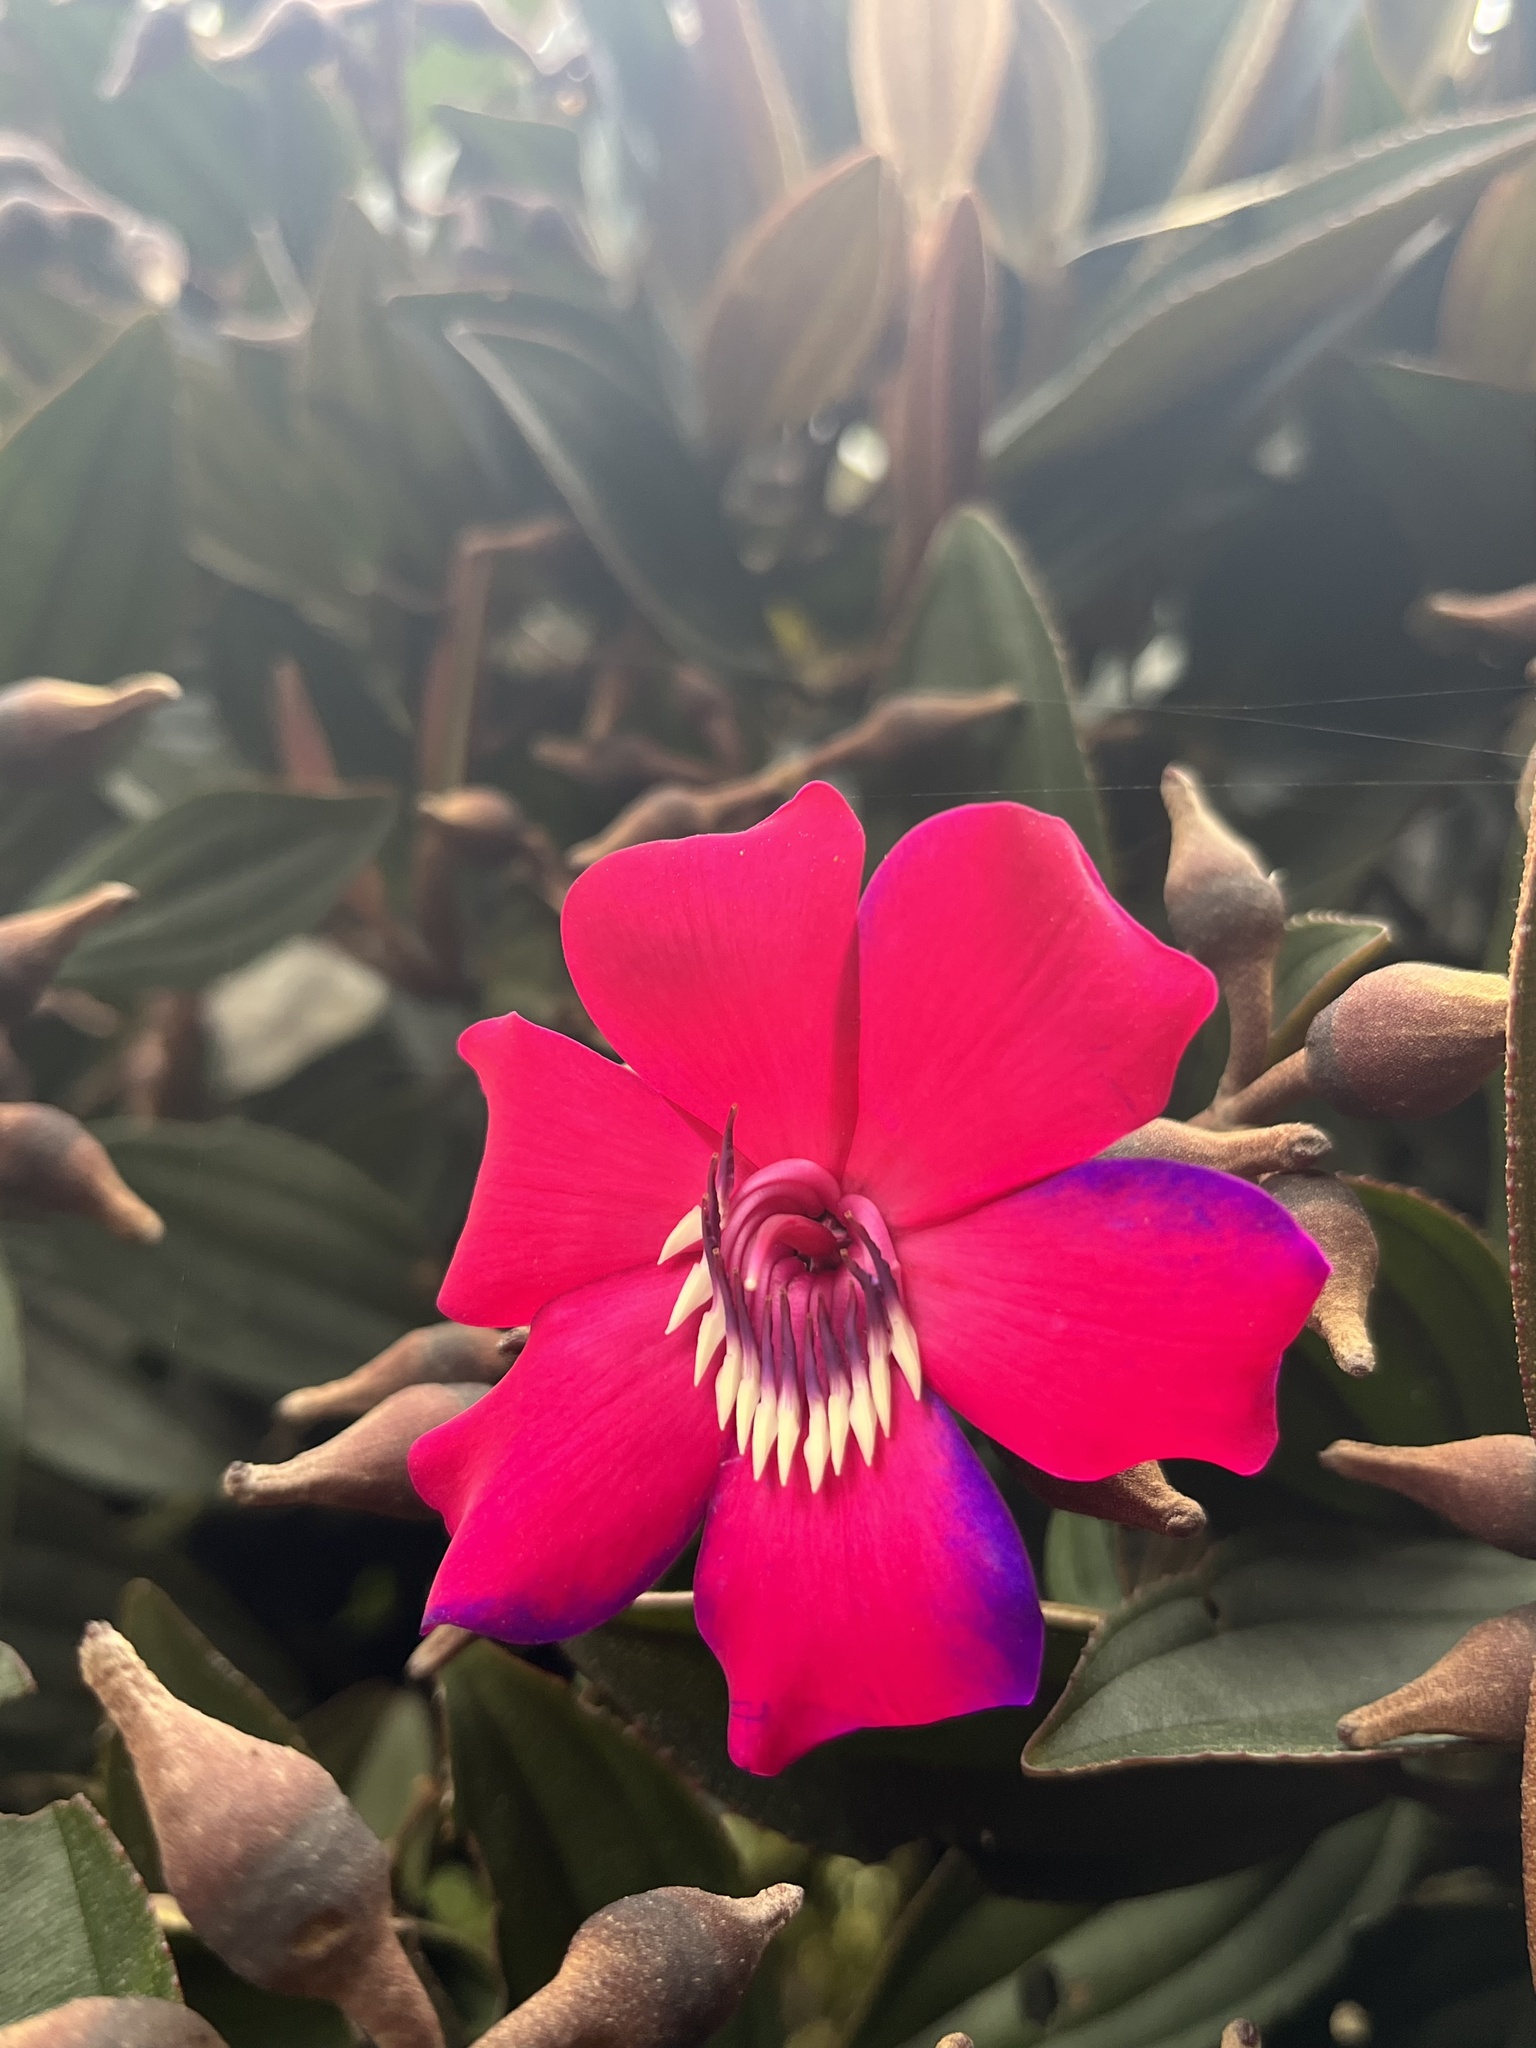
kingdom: Plantae
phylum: Tracheophyta
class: Magnoliopsida
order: Myrtales
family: Melastomataceae
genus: Meriania
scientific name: Meriania brachycera
